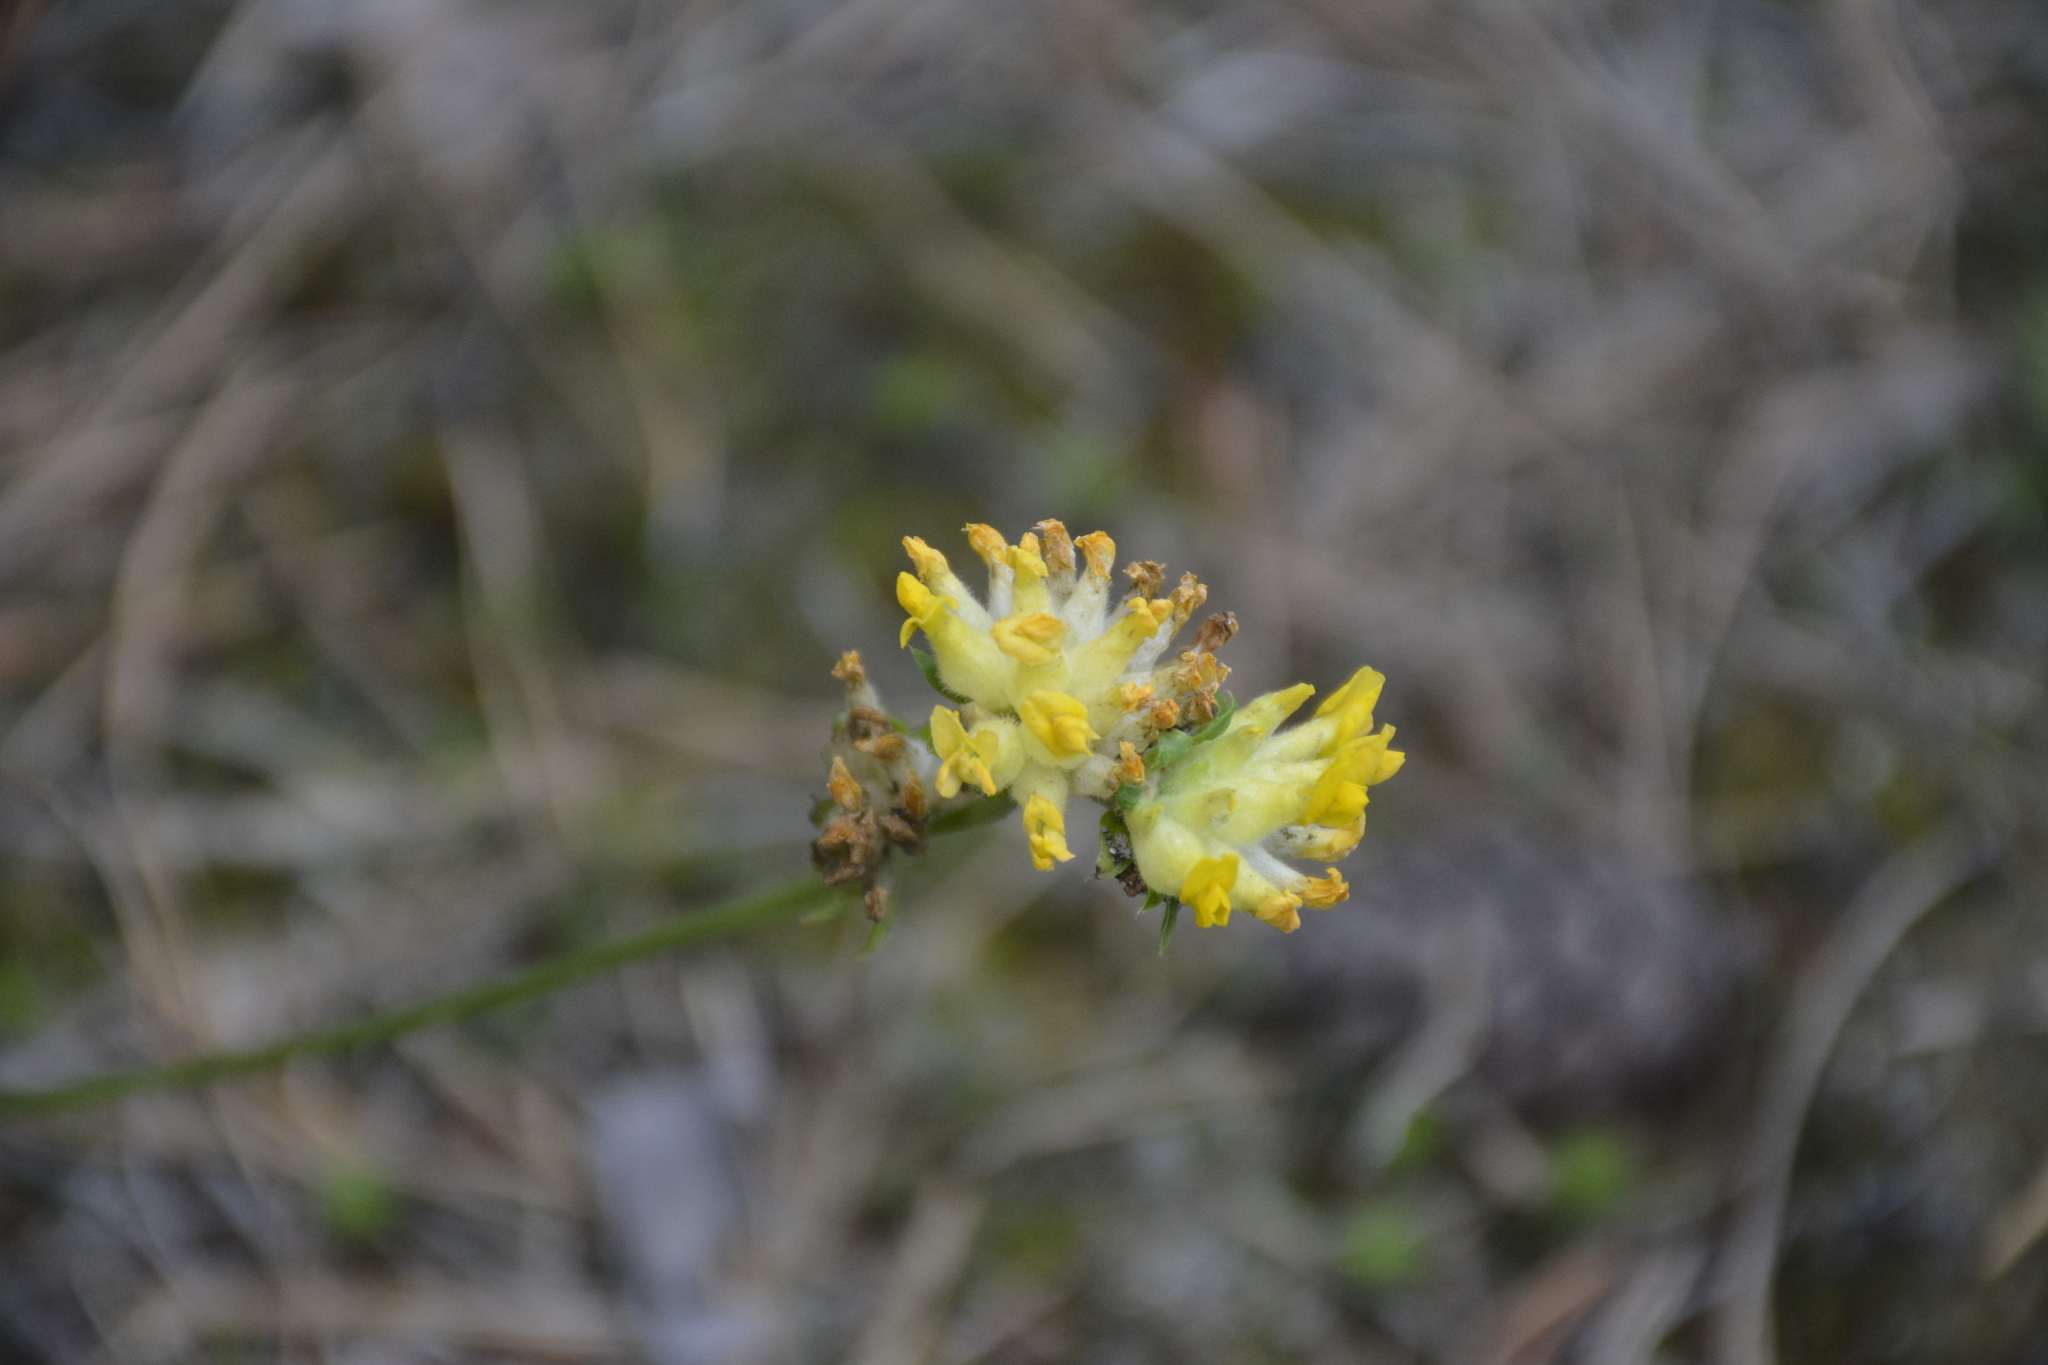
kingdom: Plantae
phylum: Tracheophyta
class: Magnoliopsida
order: Fabales
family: Fabaceae
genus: Anthyllis
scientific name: Anthyllis vulneraria
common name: Kidney vetch
